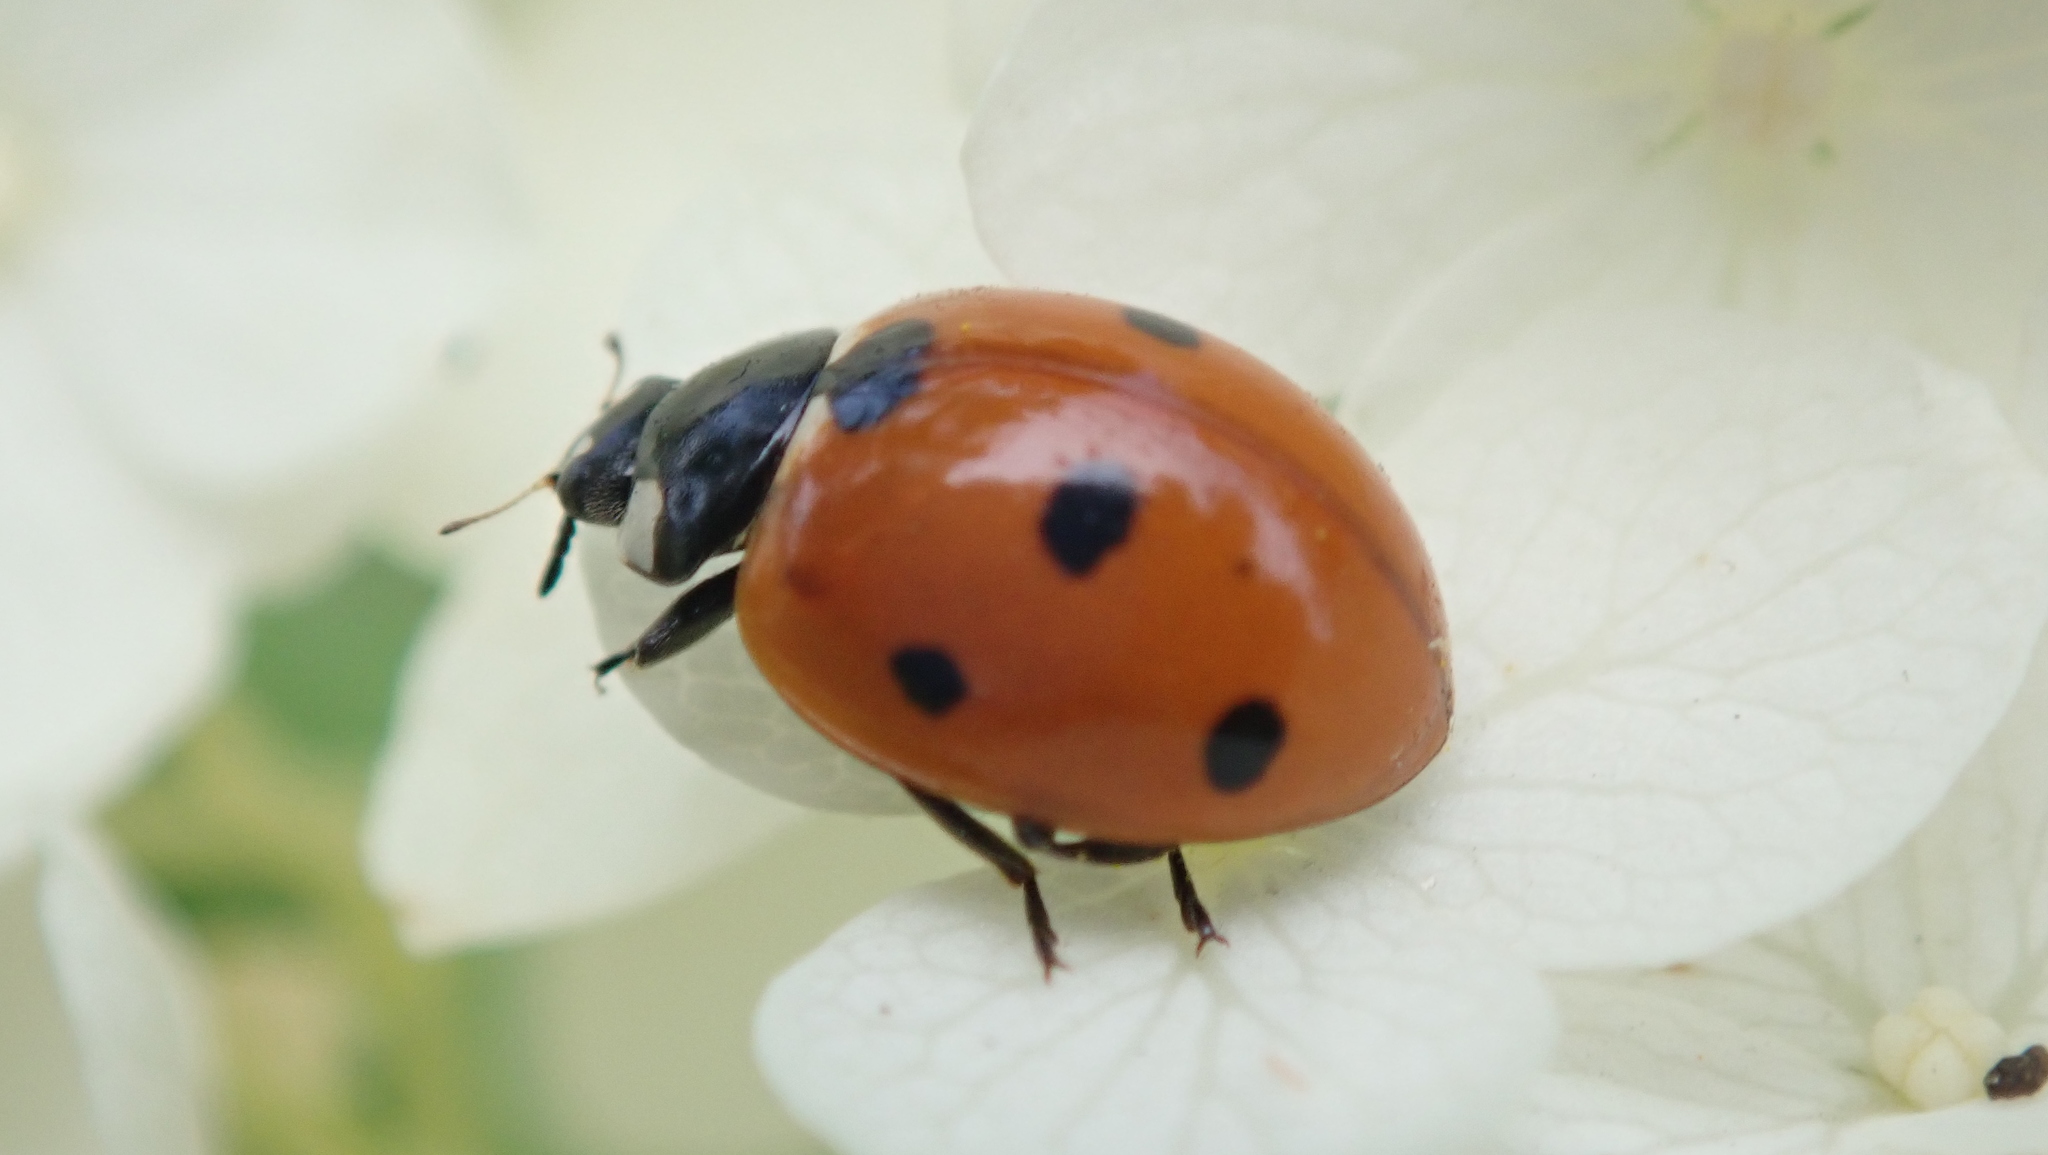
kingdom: Animalia
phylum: Arthropoda
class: Insecta
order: Coleoptera
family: Coccinellidae
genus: Coccinella
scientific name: Coccinella septempunctata
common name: Sevenspotted lady beetle
